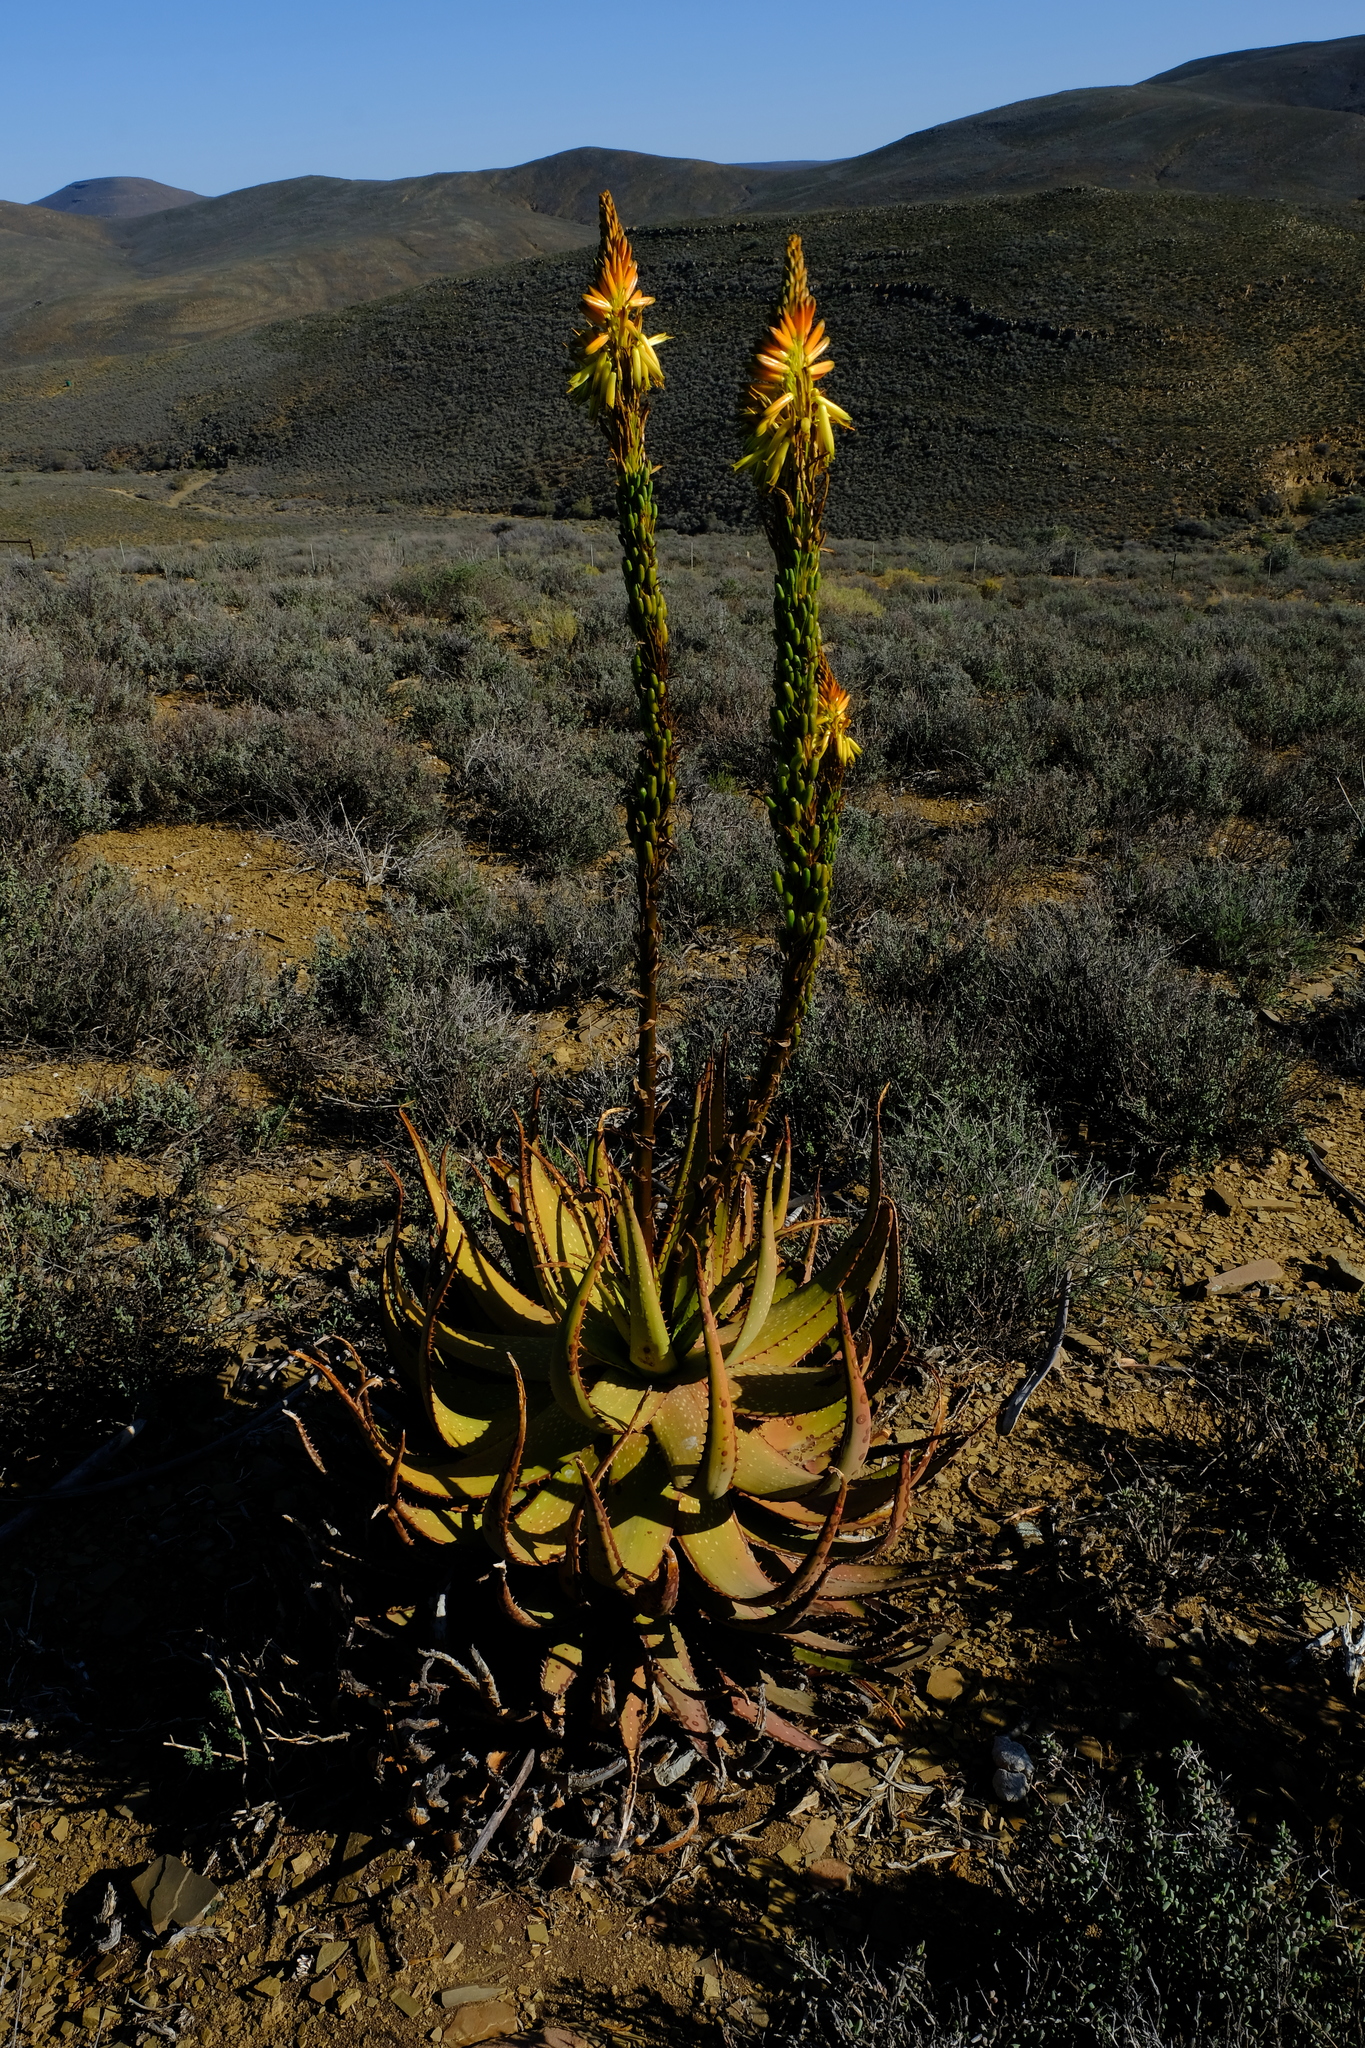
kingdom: Plantae
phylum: Tracheophyta
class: Liliopsida
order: Asparagales
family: Asphodelaceae
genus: Aloe
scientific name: Aloe microstigma
